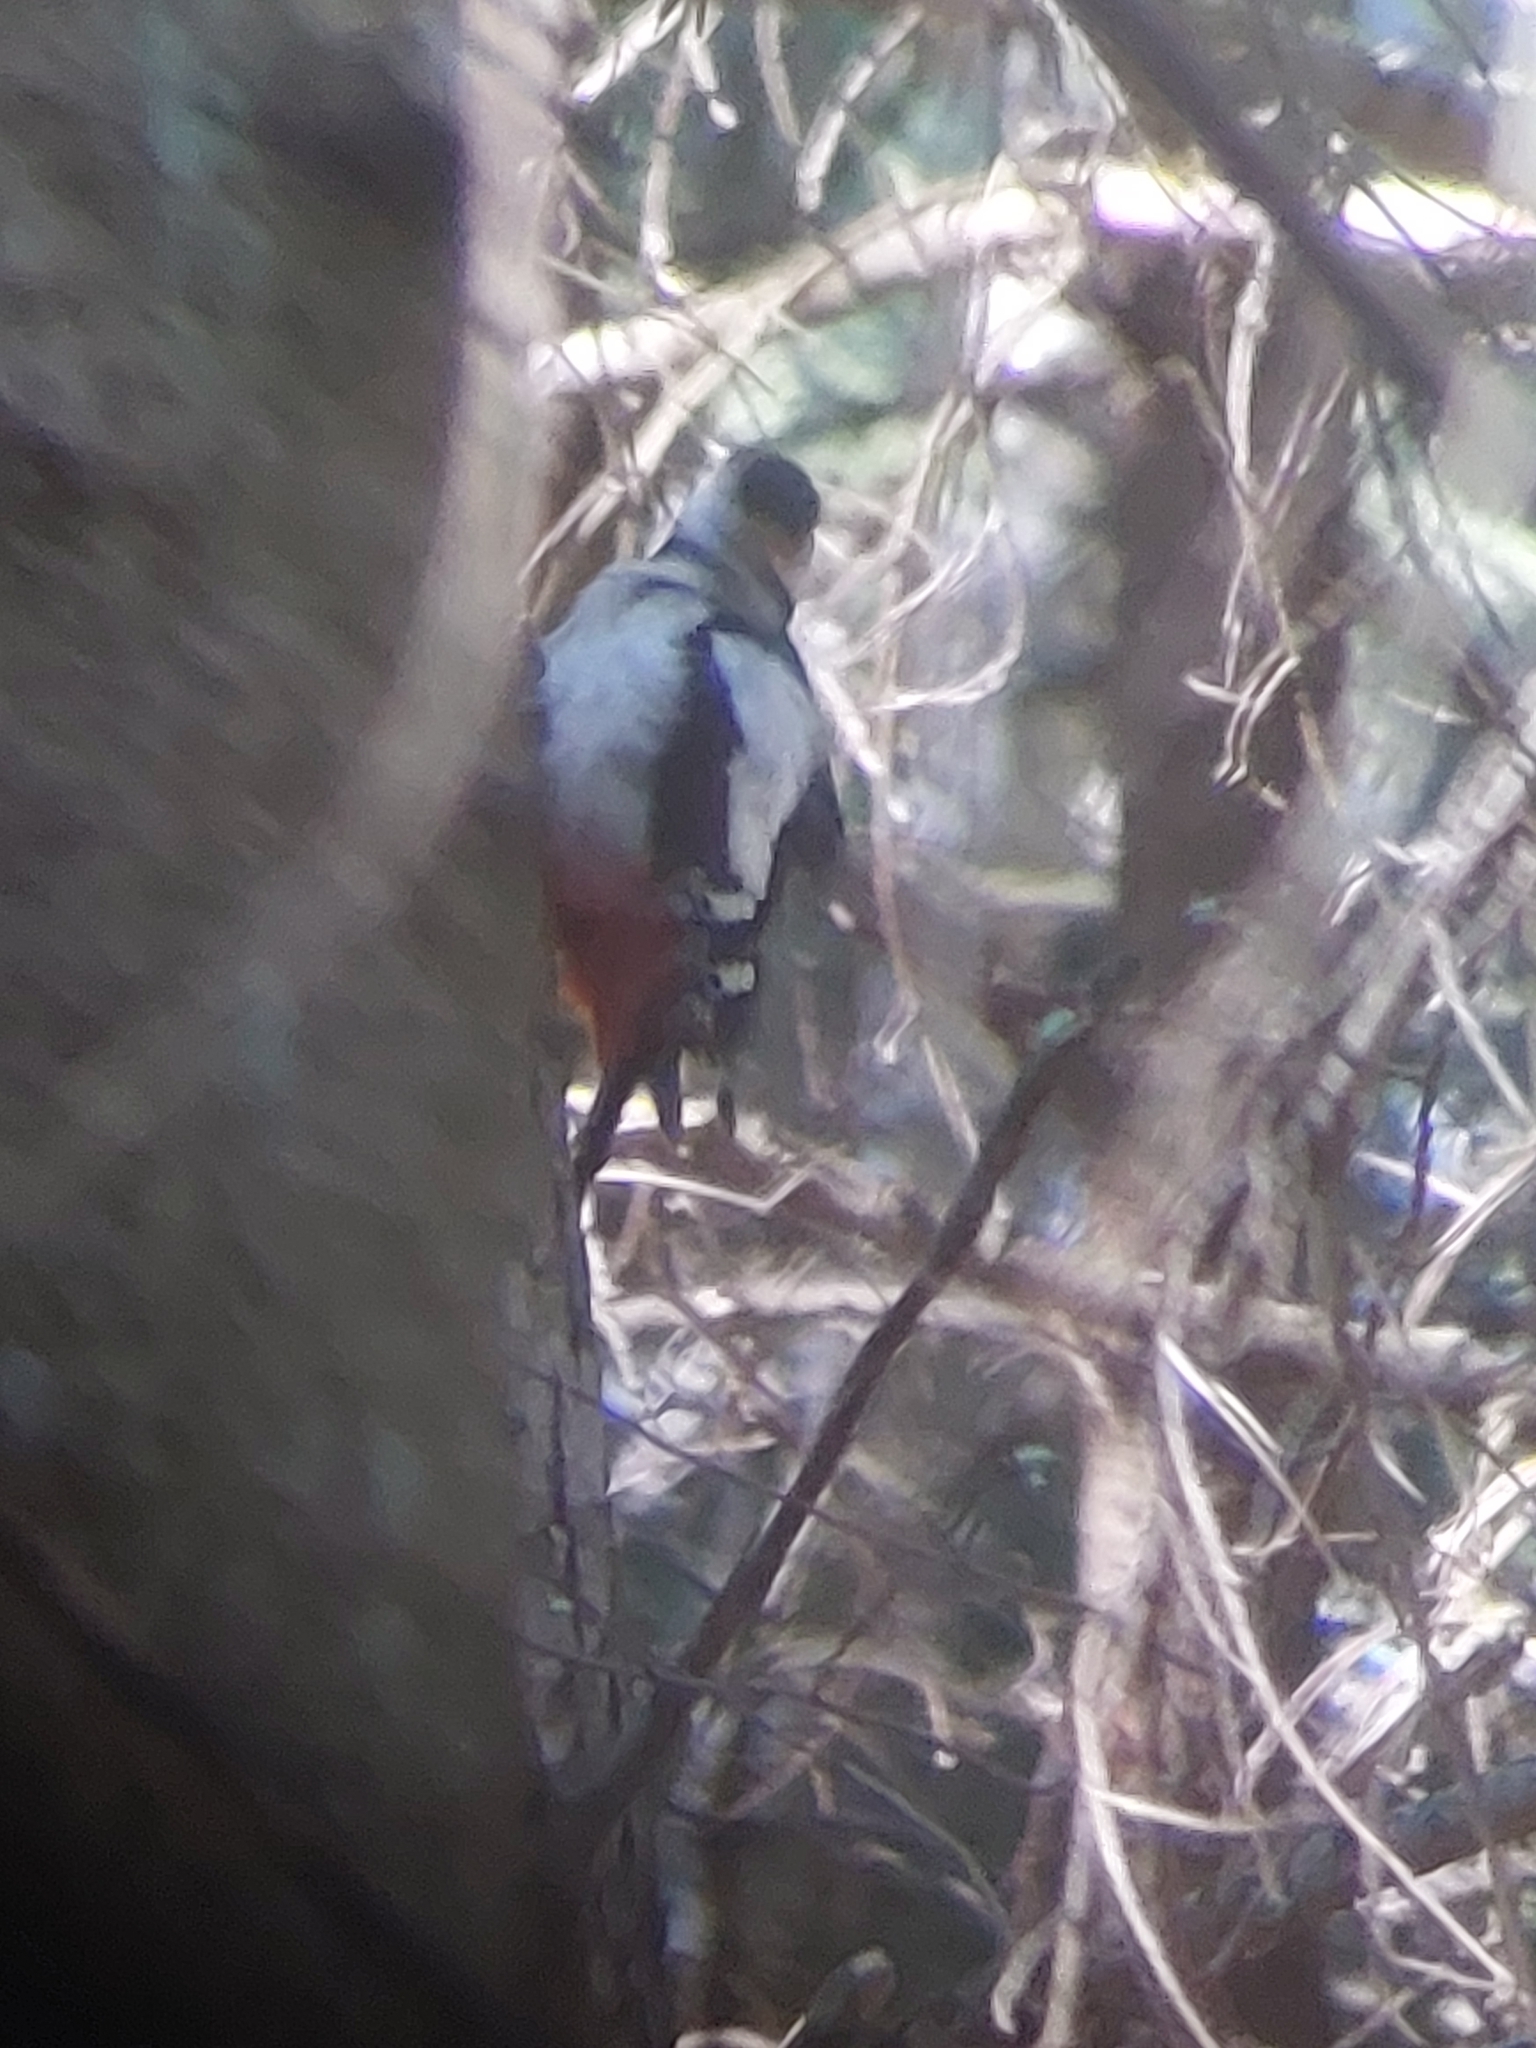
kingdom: Animalia
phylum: Chordata
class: Aves
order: Piciformes
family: Picidae
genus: Dendrocopos
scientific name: Dendrocopos major
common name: Great spotted woodpecker
